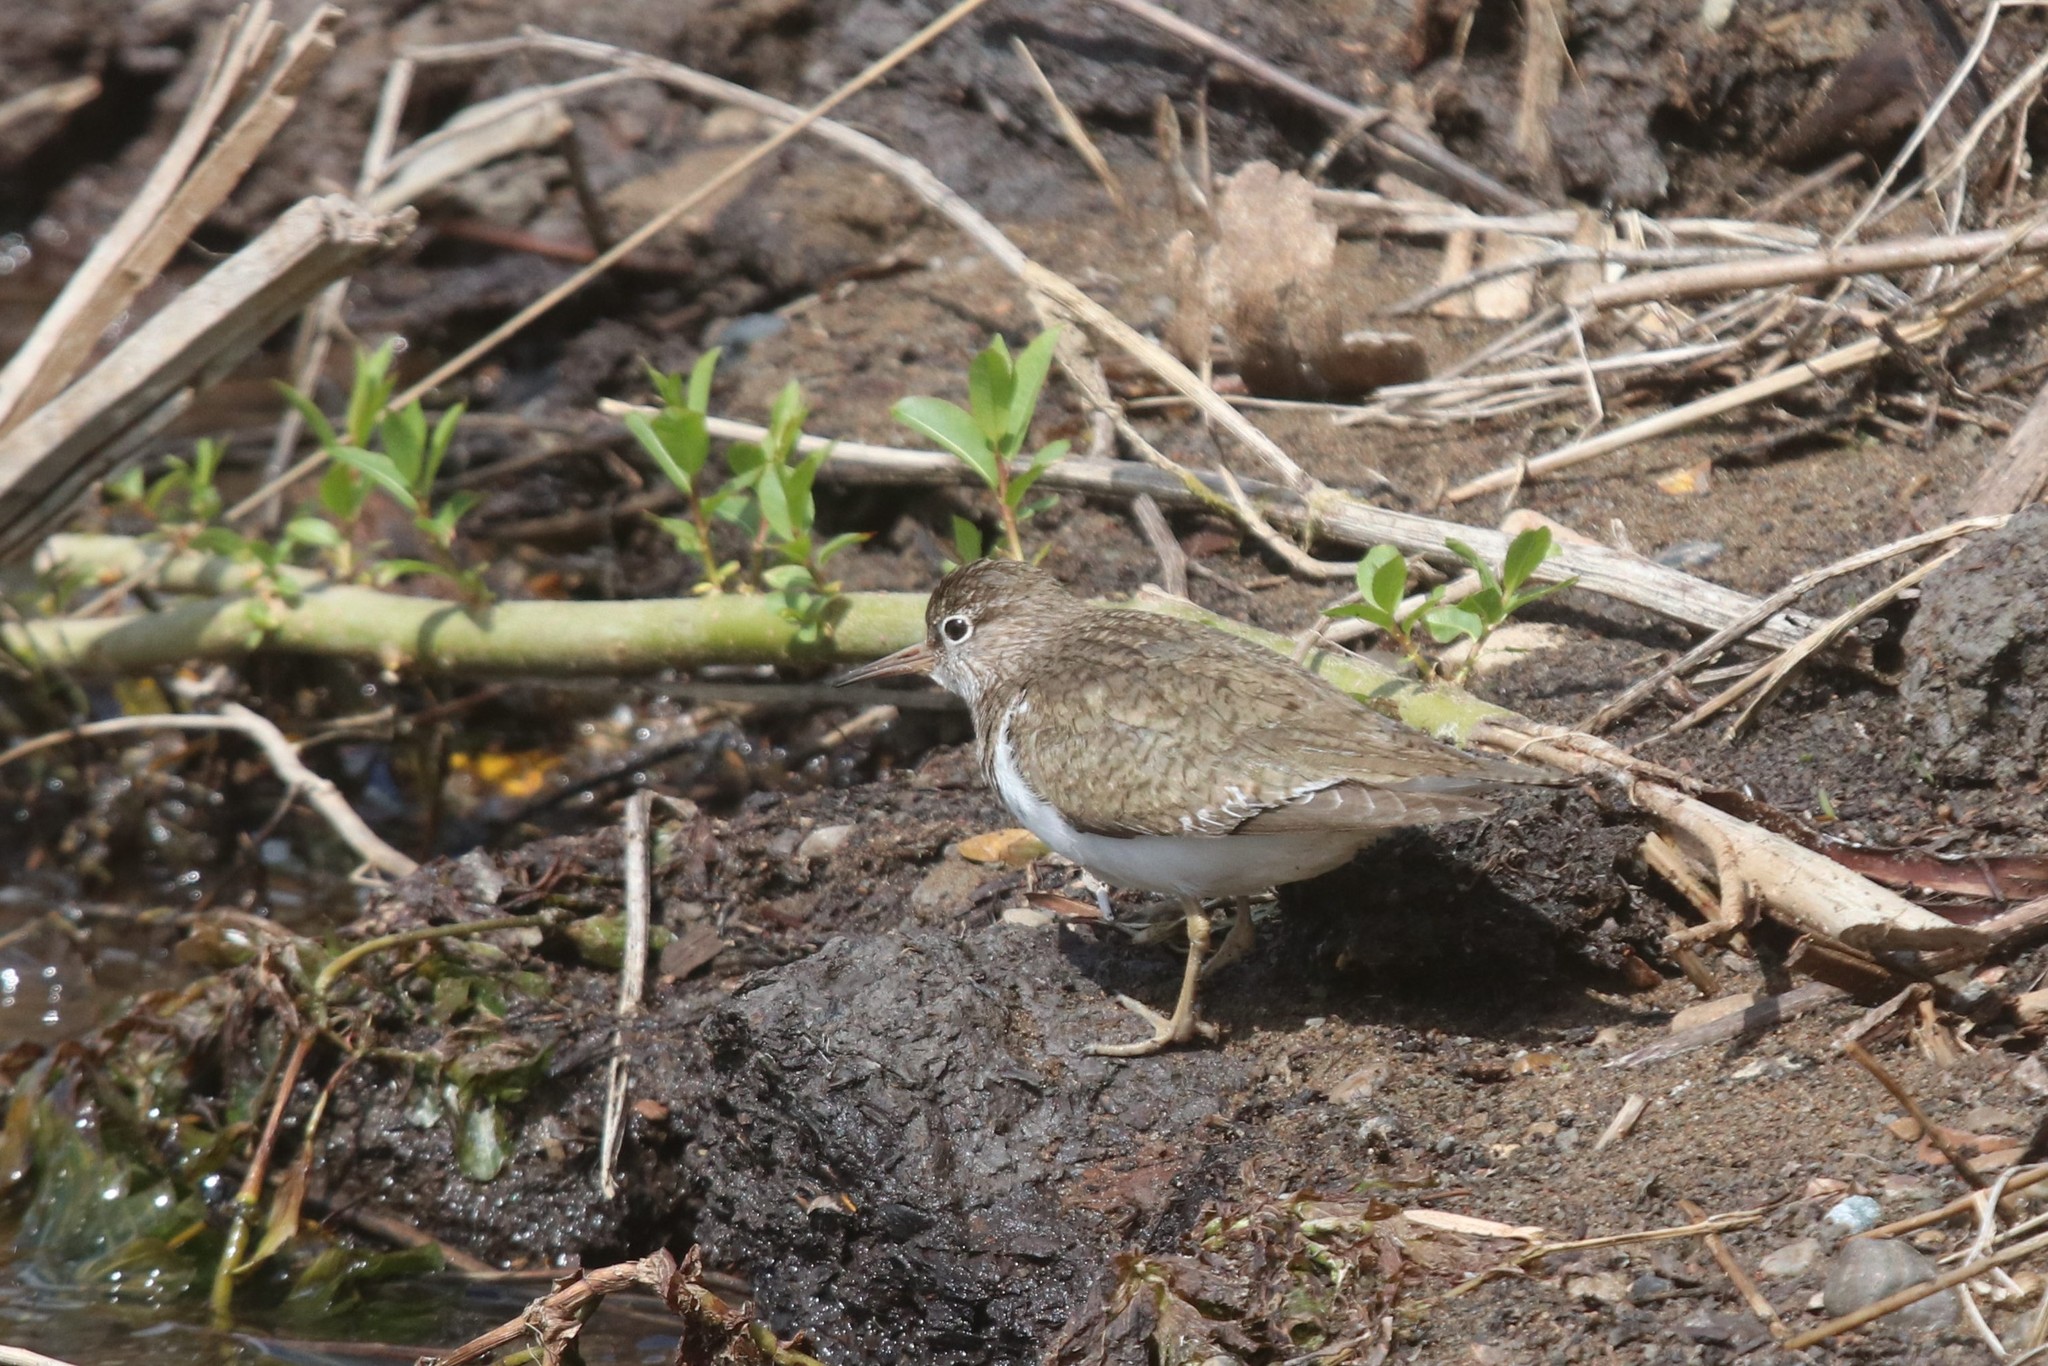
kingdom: Animalia
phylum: Chordata
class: Aves
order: Charadriiformes
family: Scolopacidae
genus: Actitis
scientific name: Actitis hypoleucos
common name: Common sandpiper
